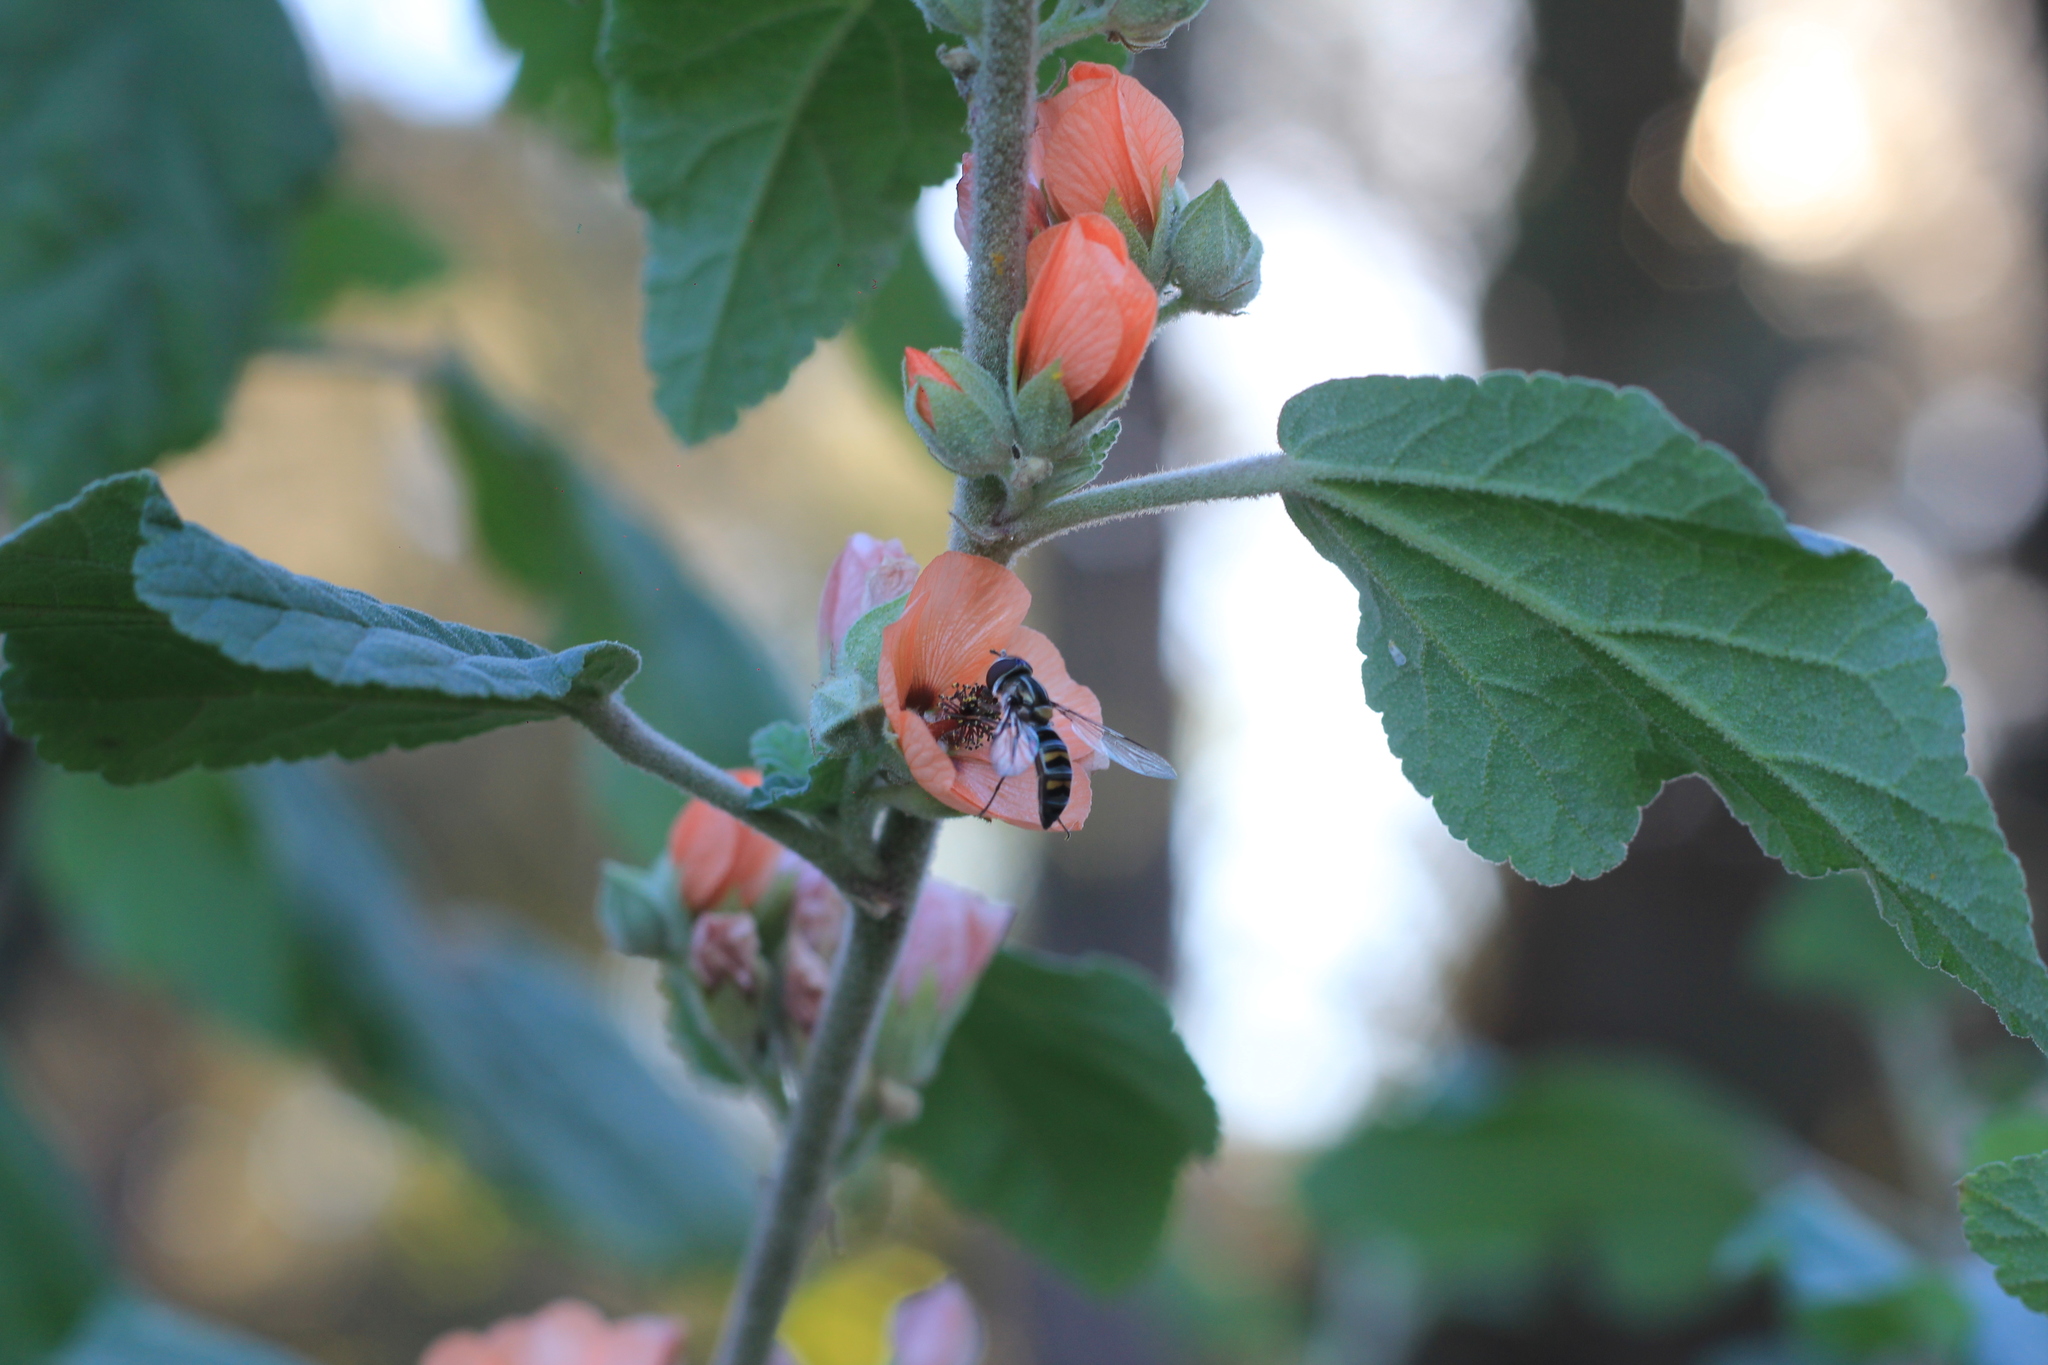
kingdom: Animalia
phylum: Arthropoda
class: Insecta
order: Diptera
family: Syrphidae
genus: Pseudoscaeva
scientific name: Pseudoscaeva meridionalis
